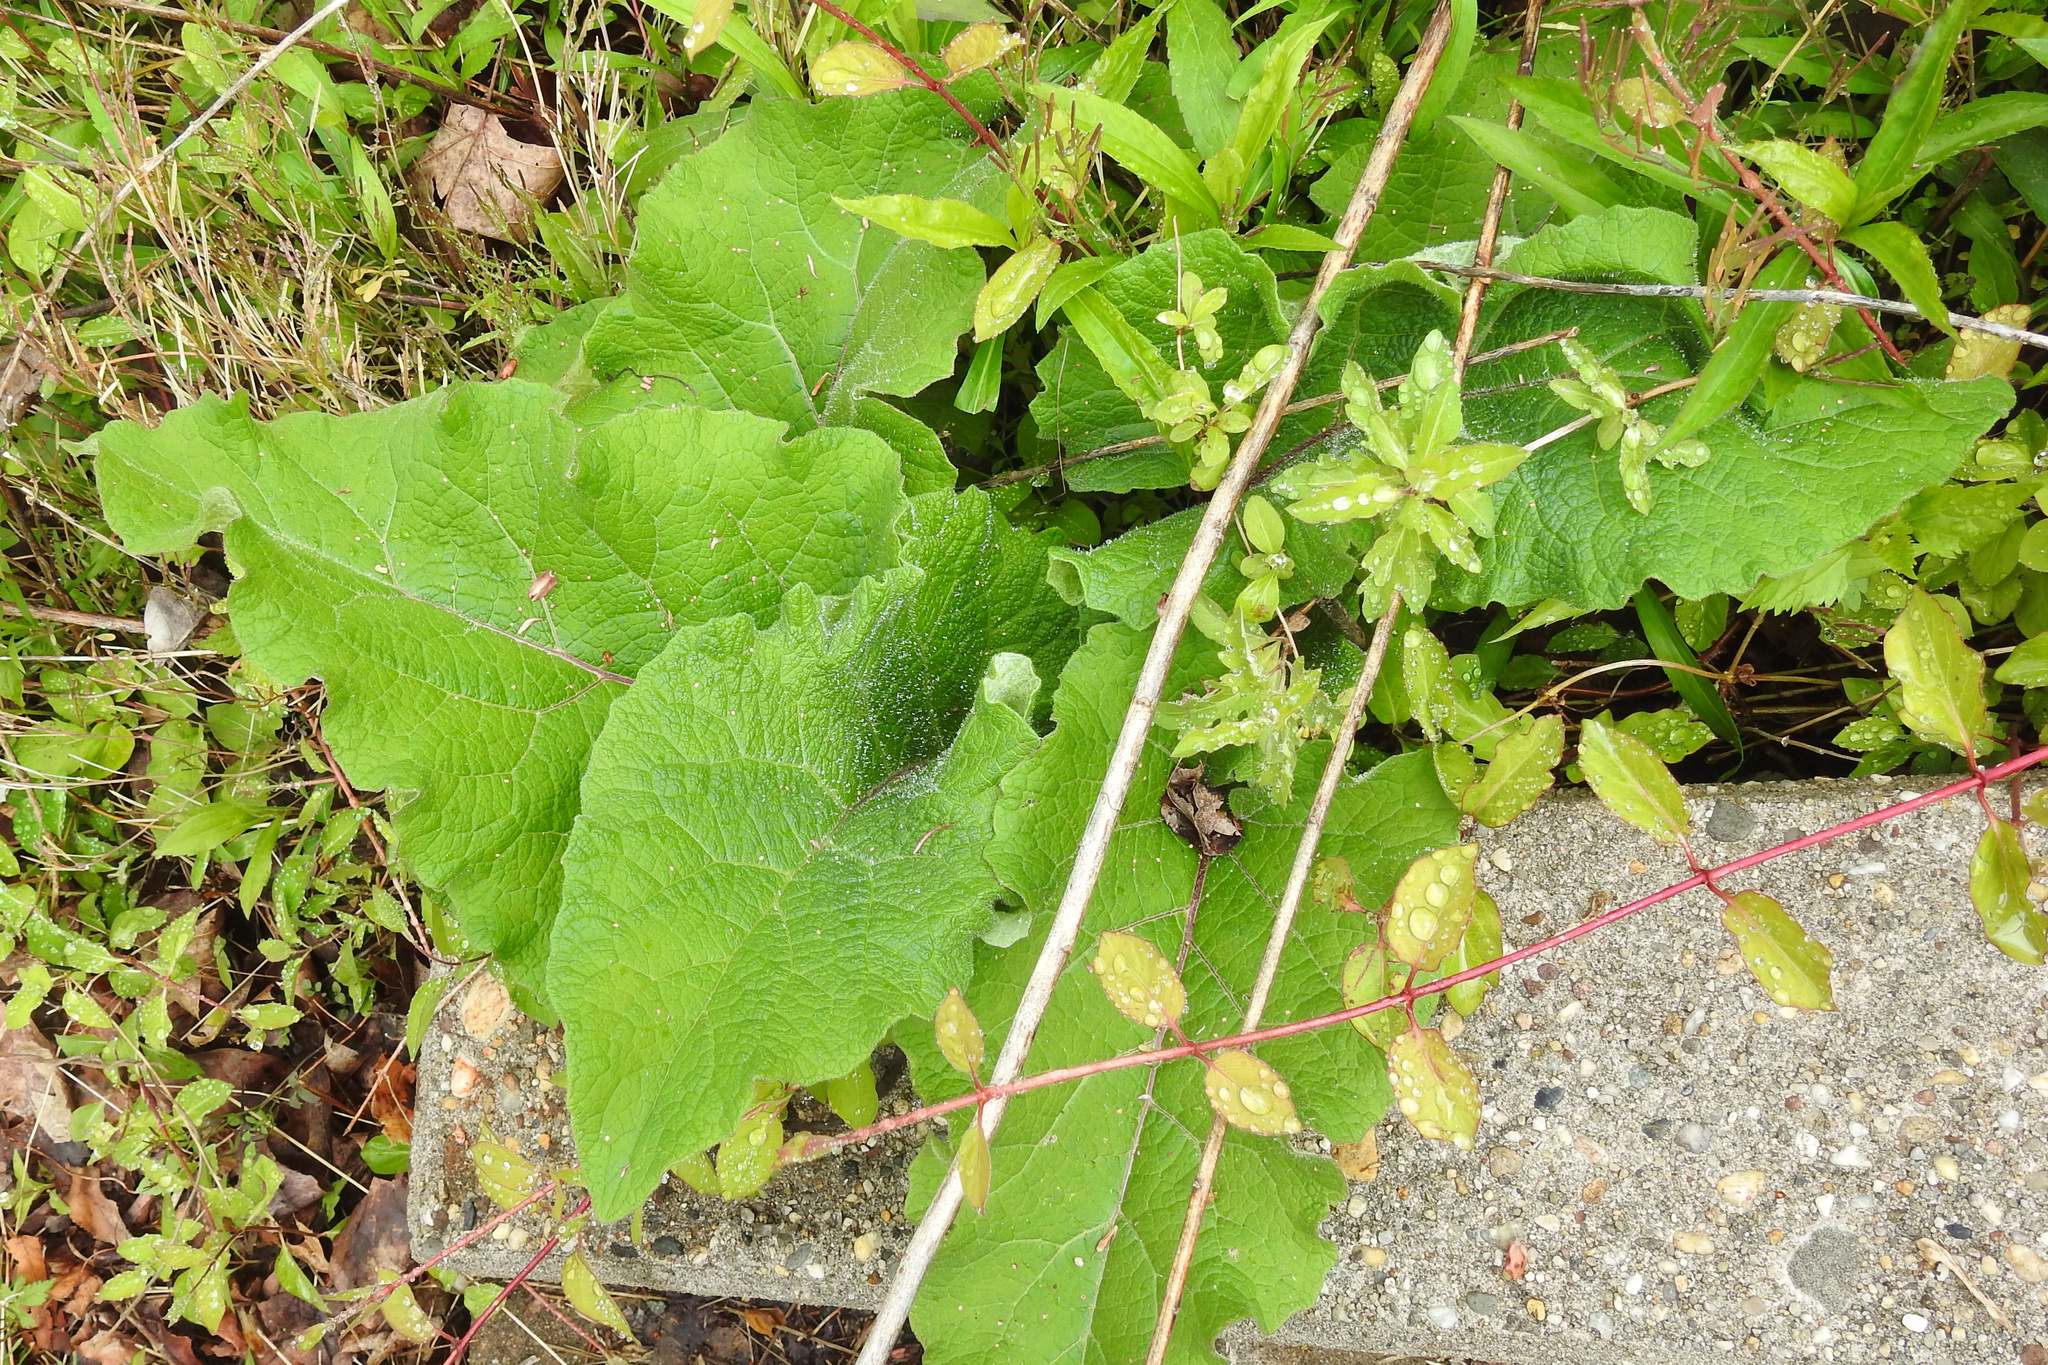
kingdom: Plantae
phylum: Tracheophyta
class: Magnoliopsida
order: Asterales
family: Asteraceae
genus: Arctium
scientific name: Arctium
